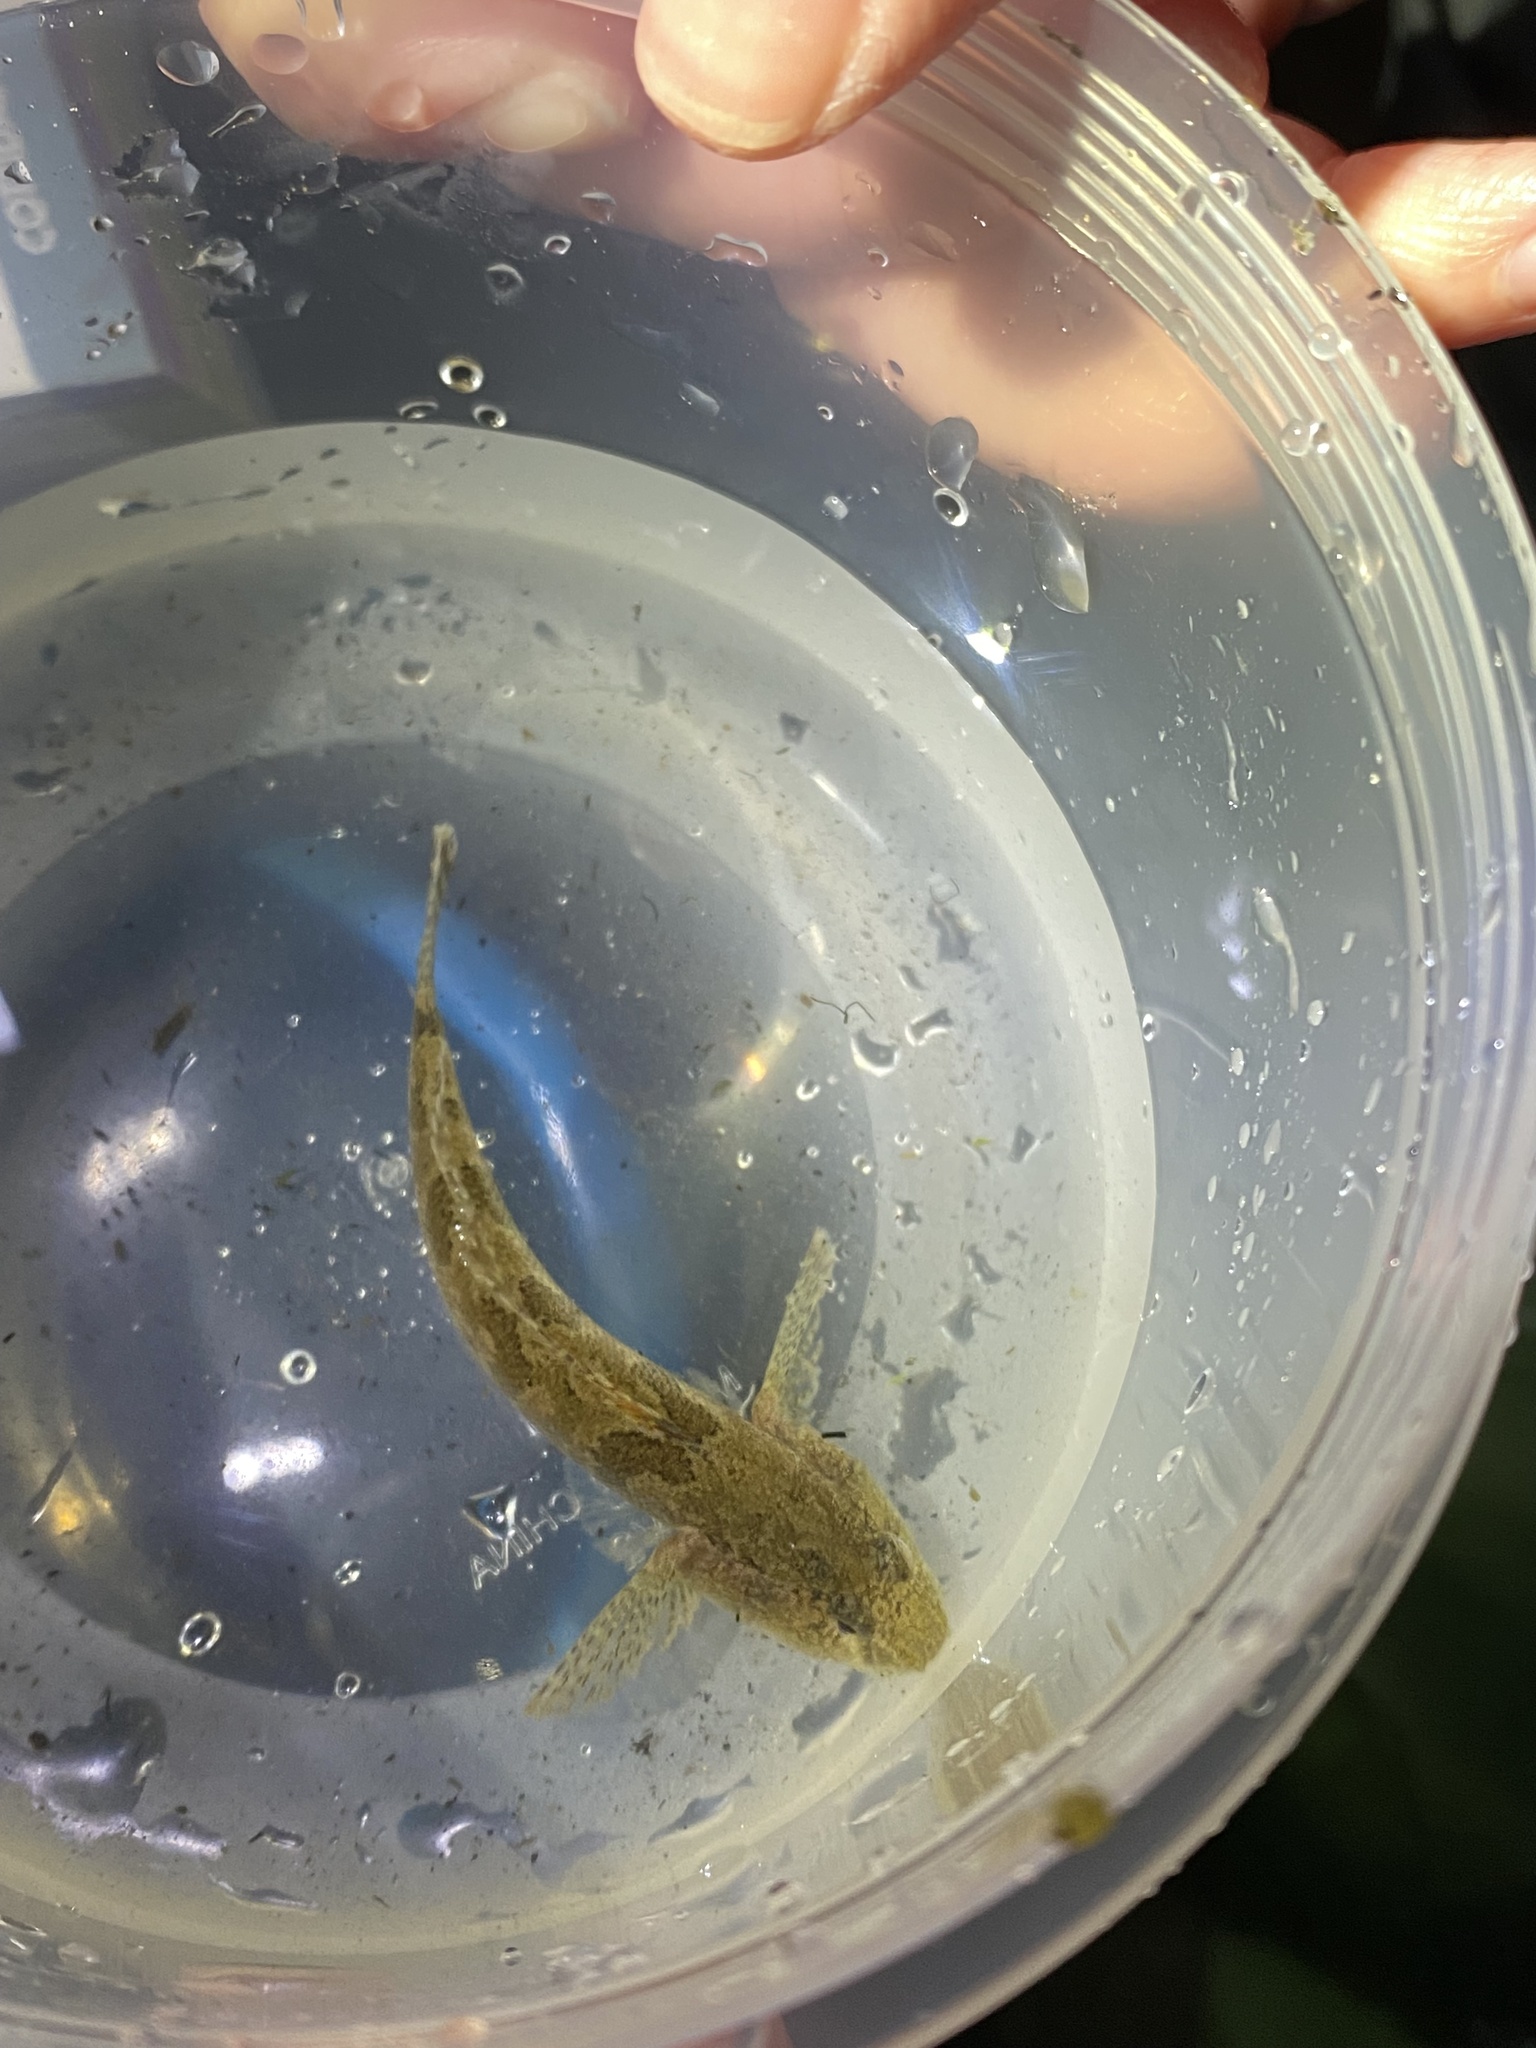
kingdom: Animalia
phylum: Chordata
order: Perciformes
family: Gobiidae
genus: Proterorhinus
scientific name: Proterorhinus semilunaris
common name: Western tubenose goby
